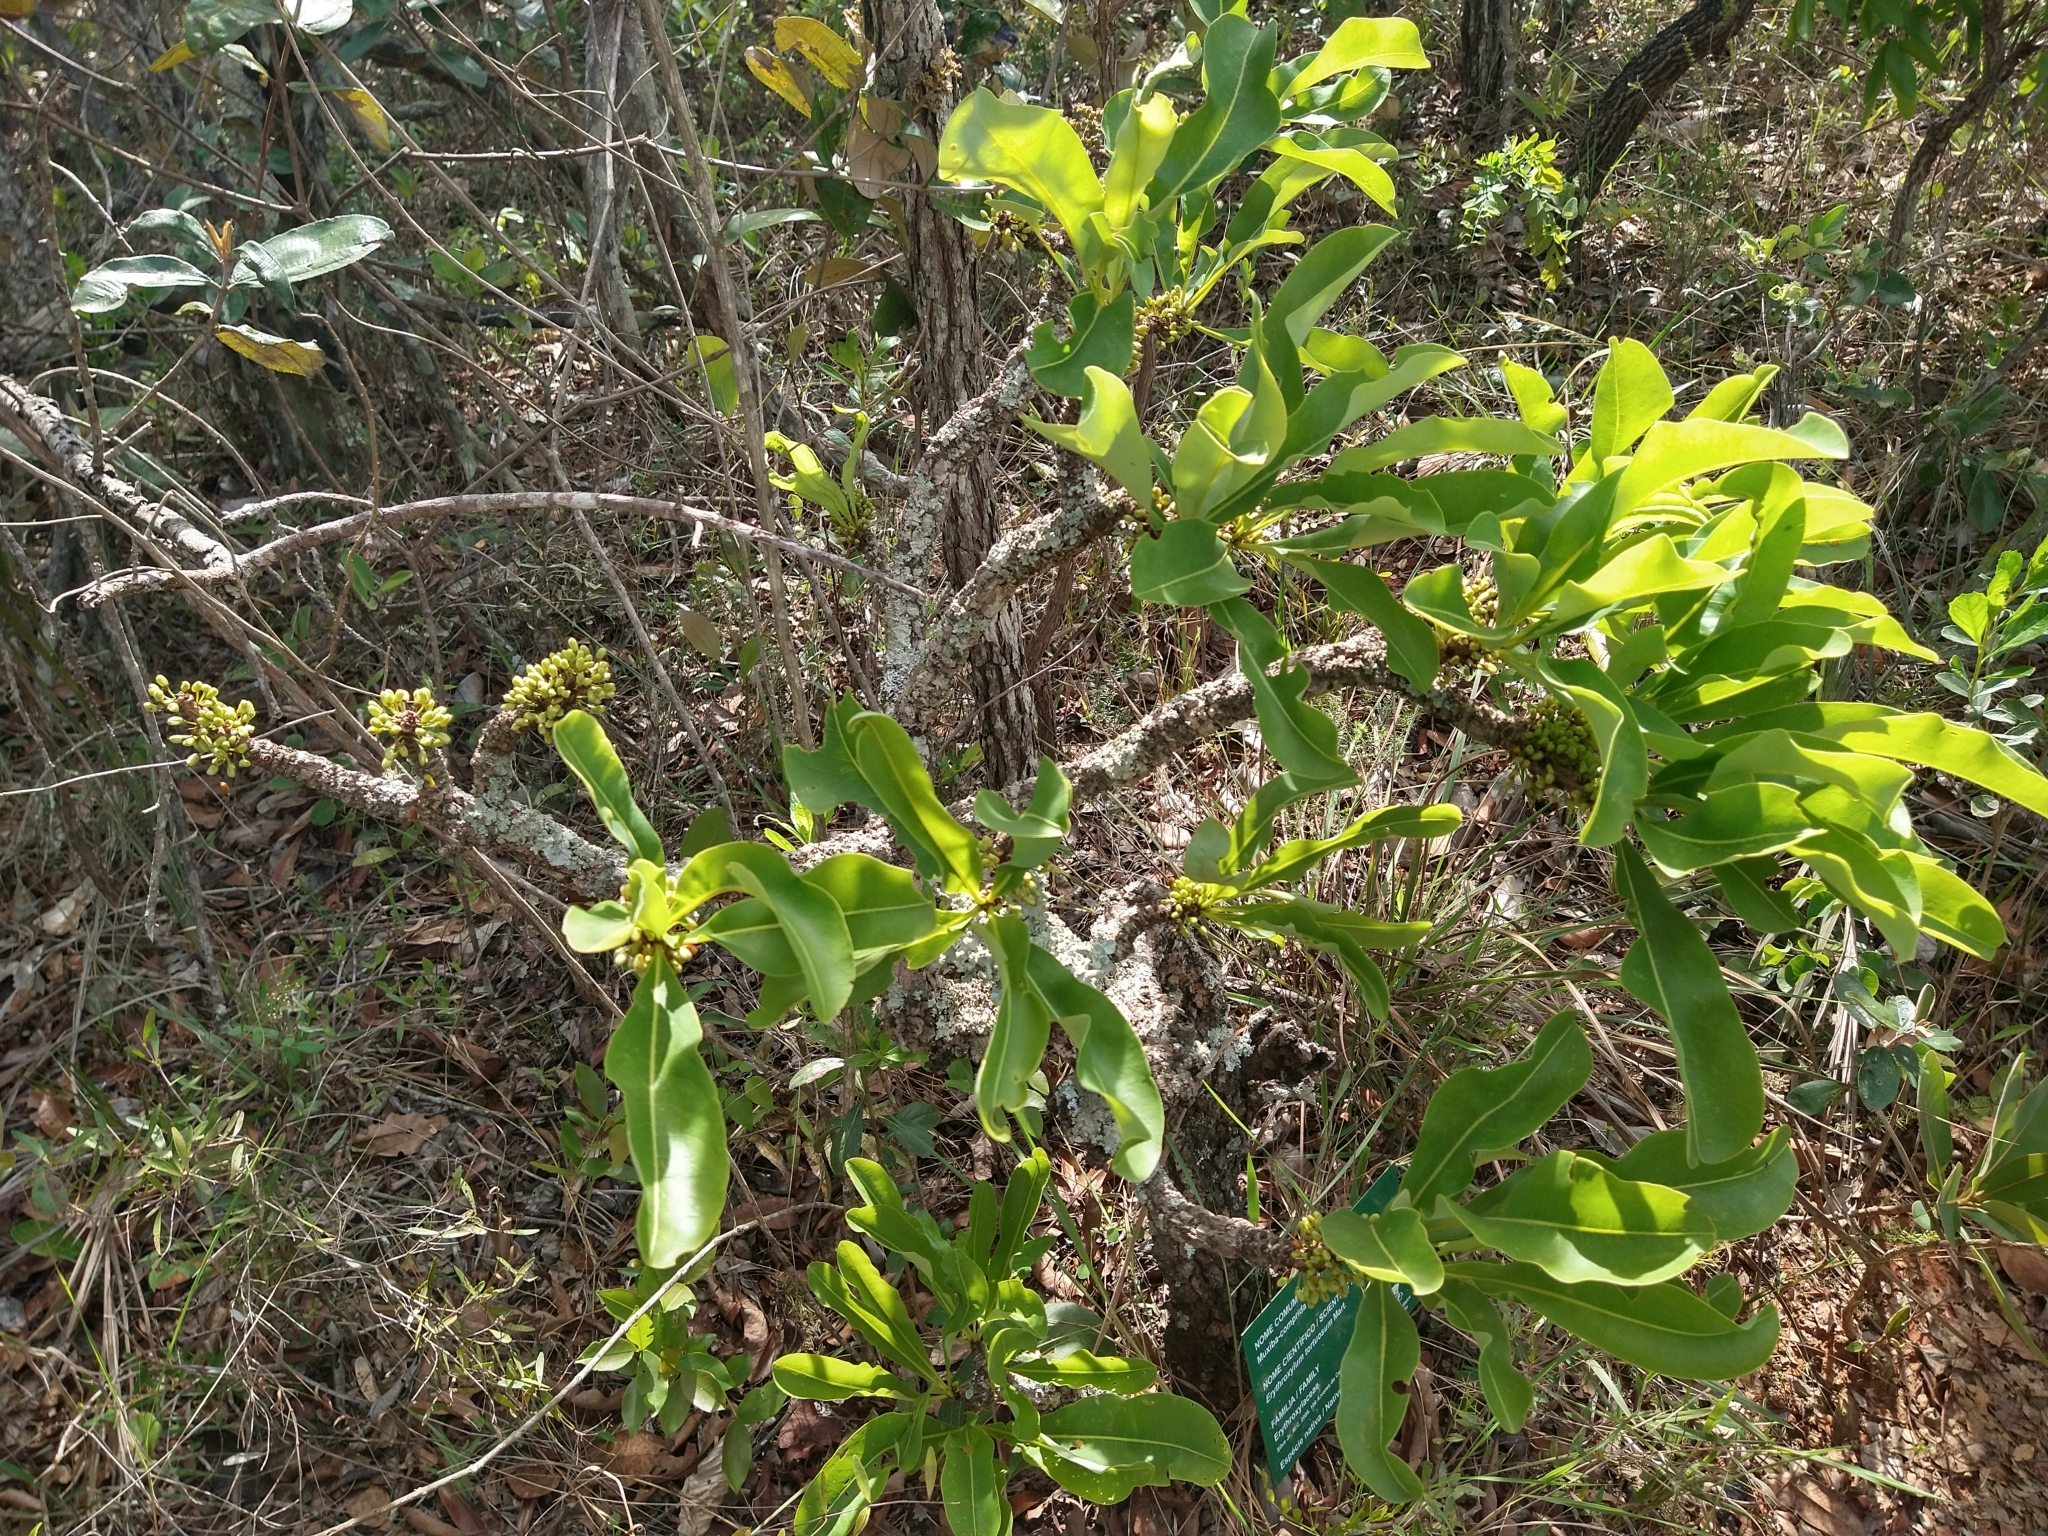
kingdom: Plantae
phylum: Tracheophyta
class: Magnoliopsida
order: Malpighiales
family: Erythroxylaceae
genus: Erythroxylum
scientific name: Erythroxylum tortuosum
